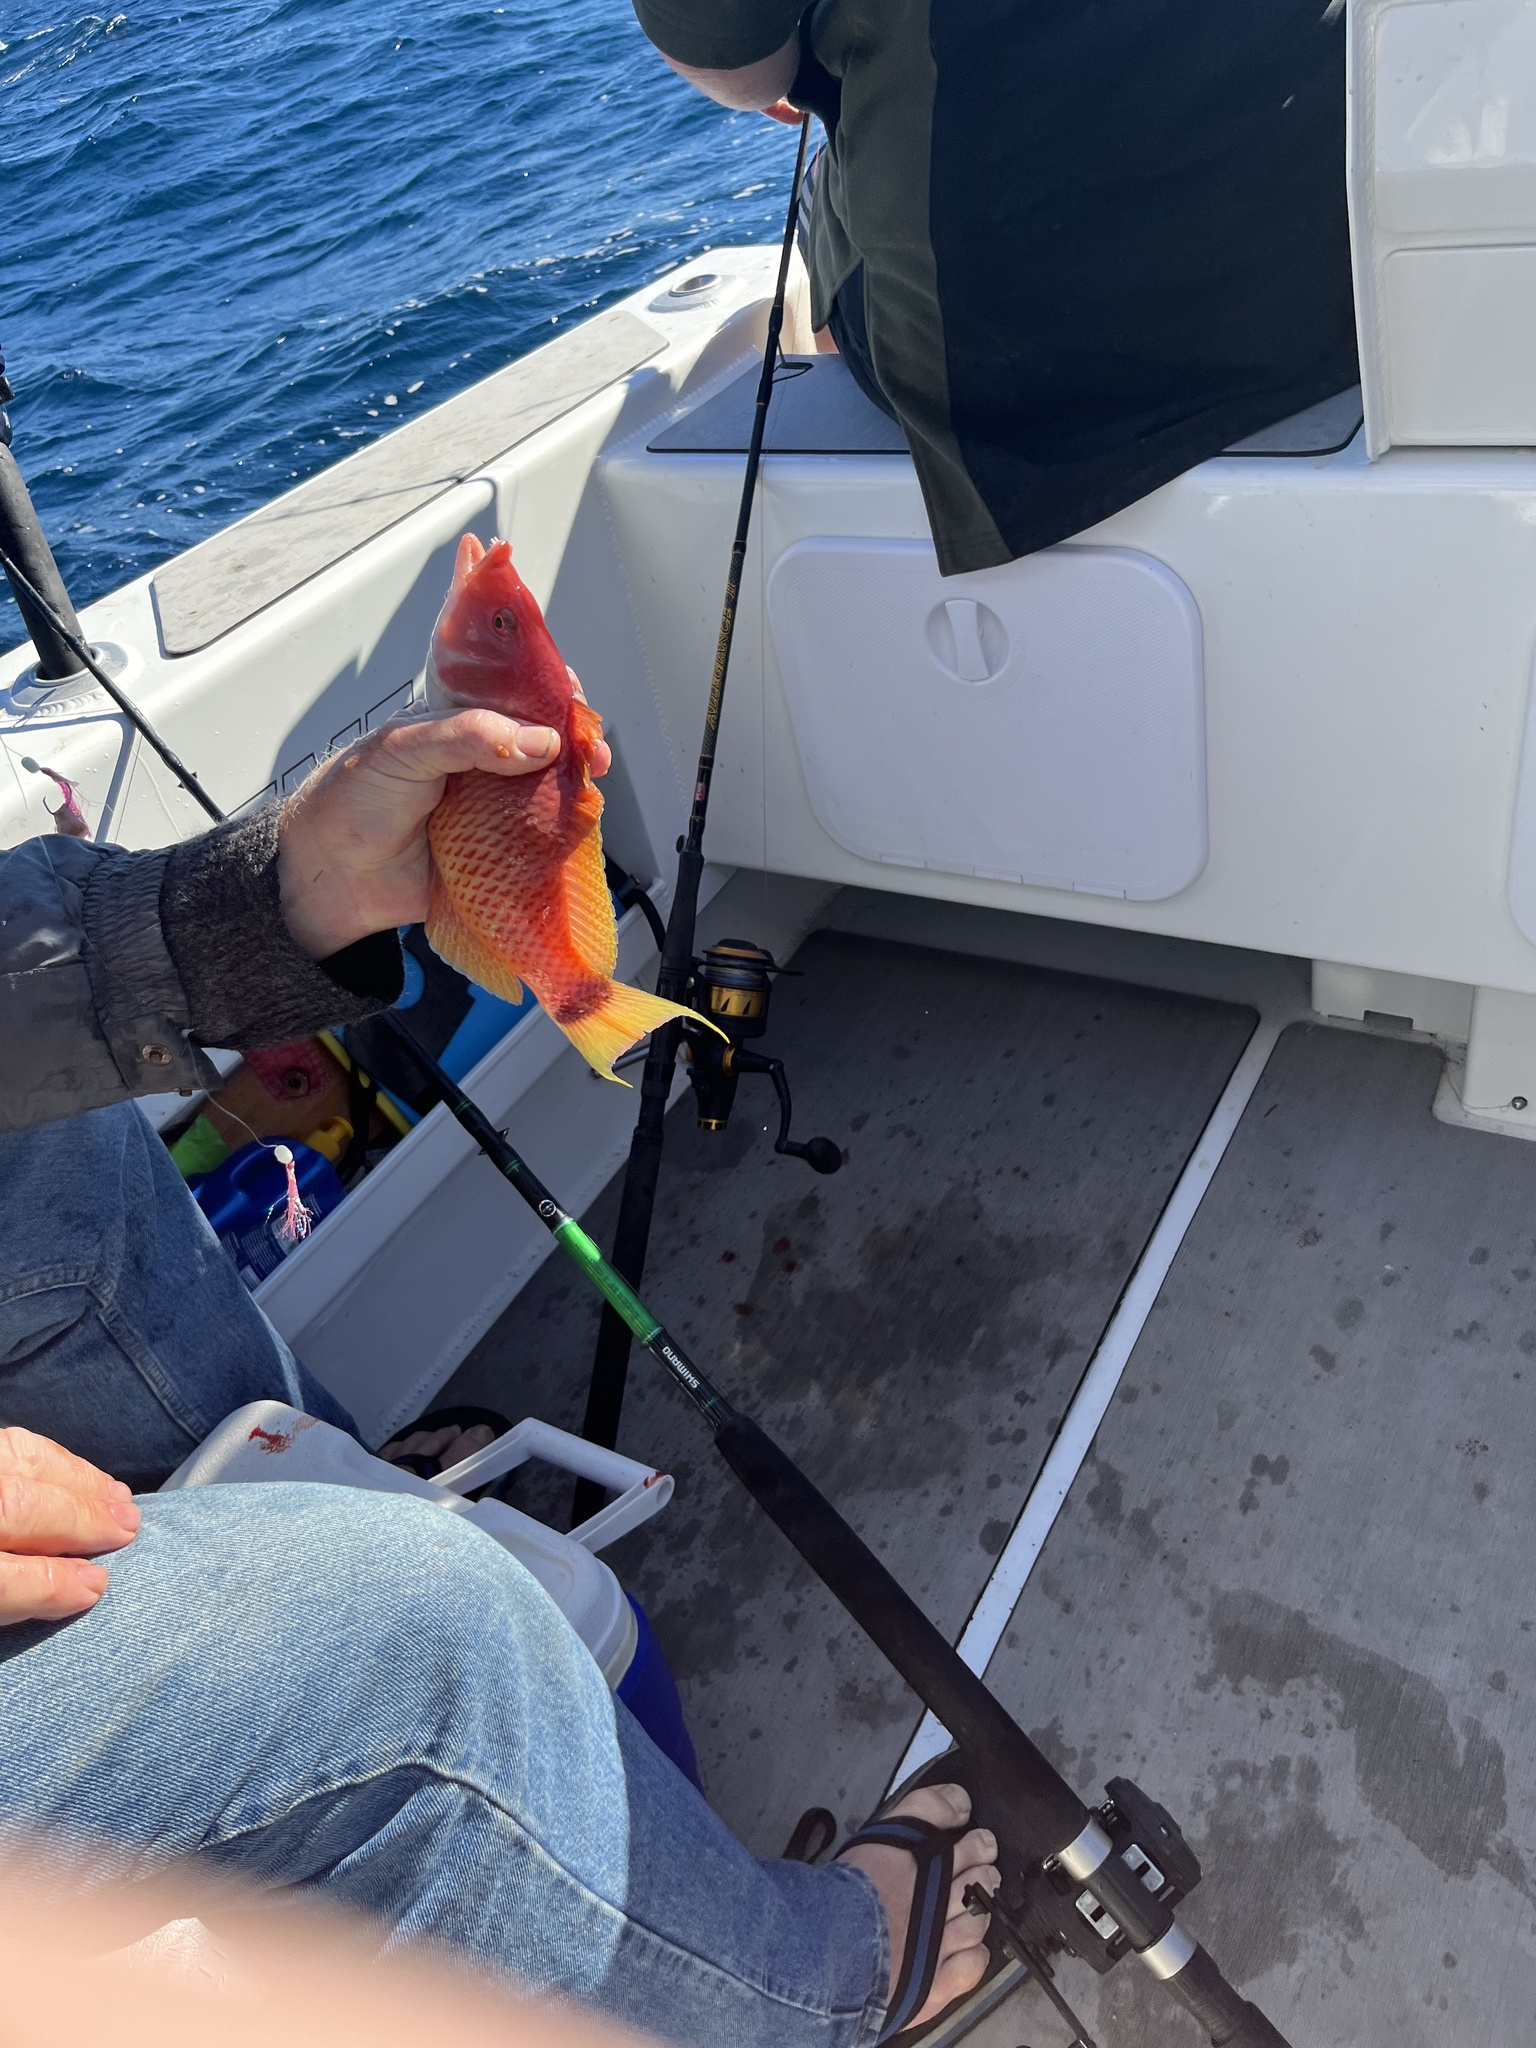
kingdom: Animalia
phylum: Chordata
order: Perciformes
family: Labridae
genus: Pseudolabrus
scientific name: Pseudolabrus miles
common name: Scarlet wrasse
